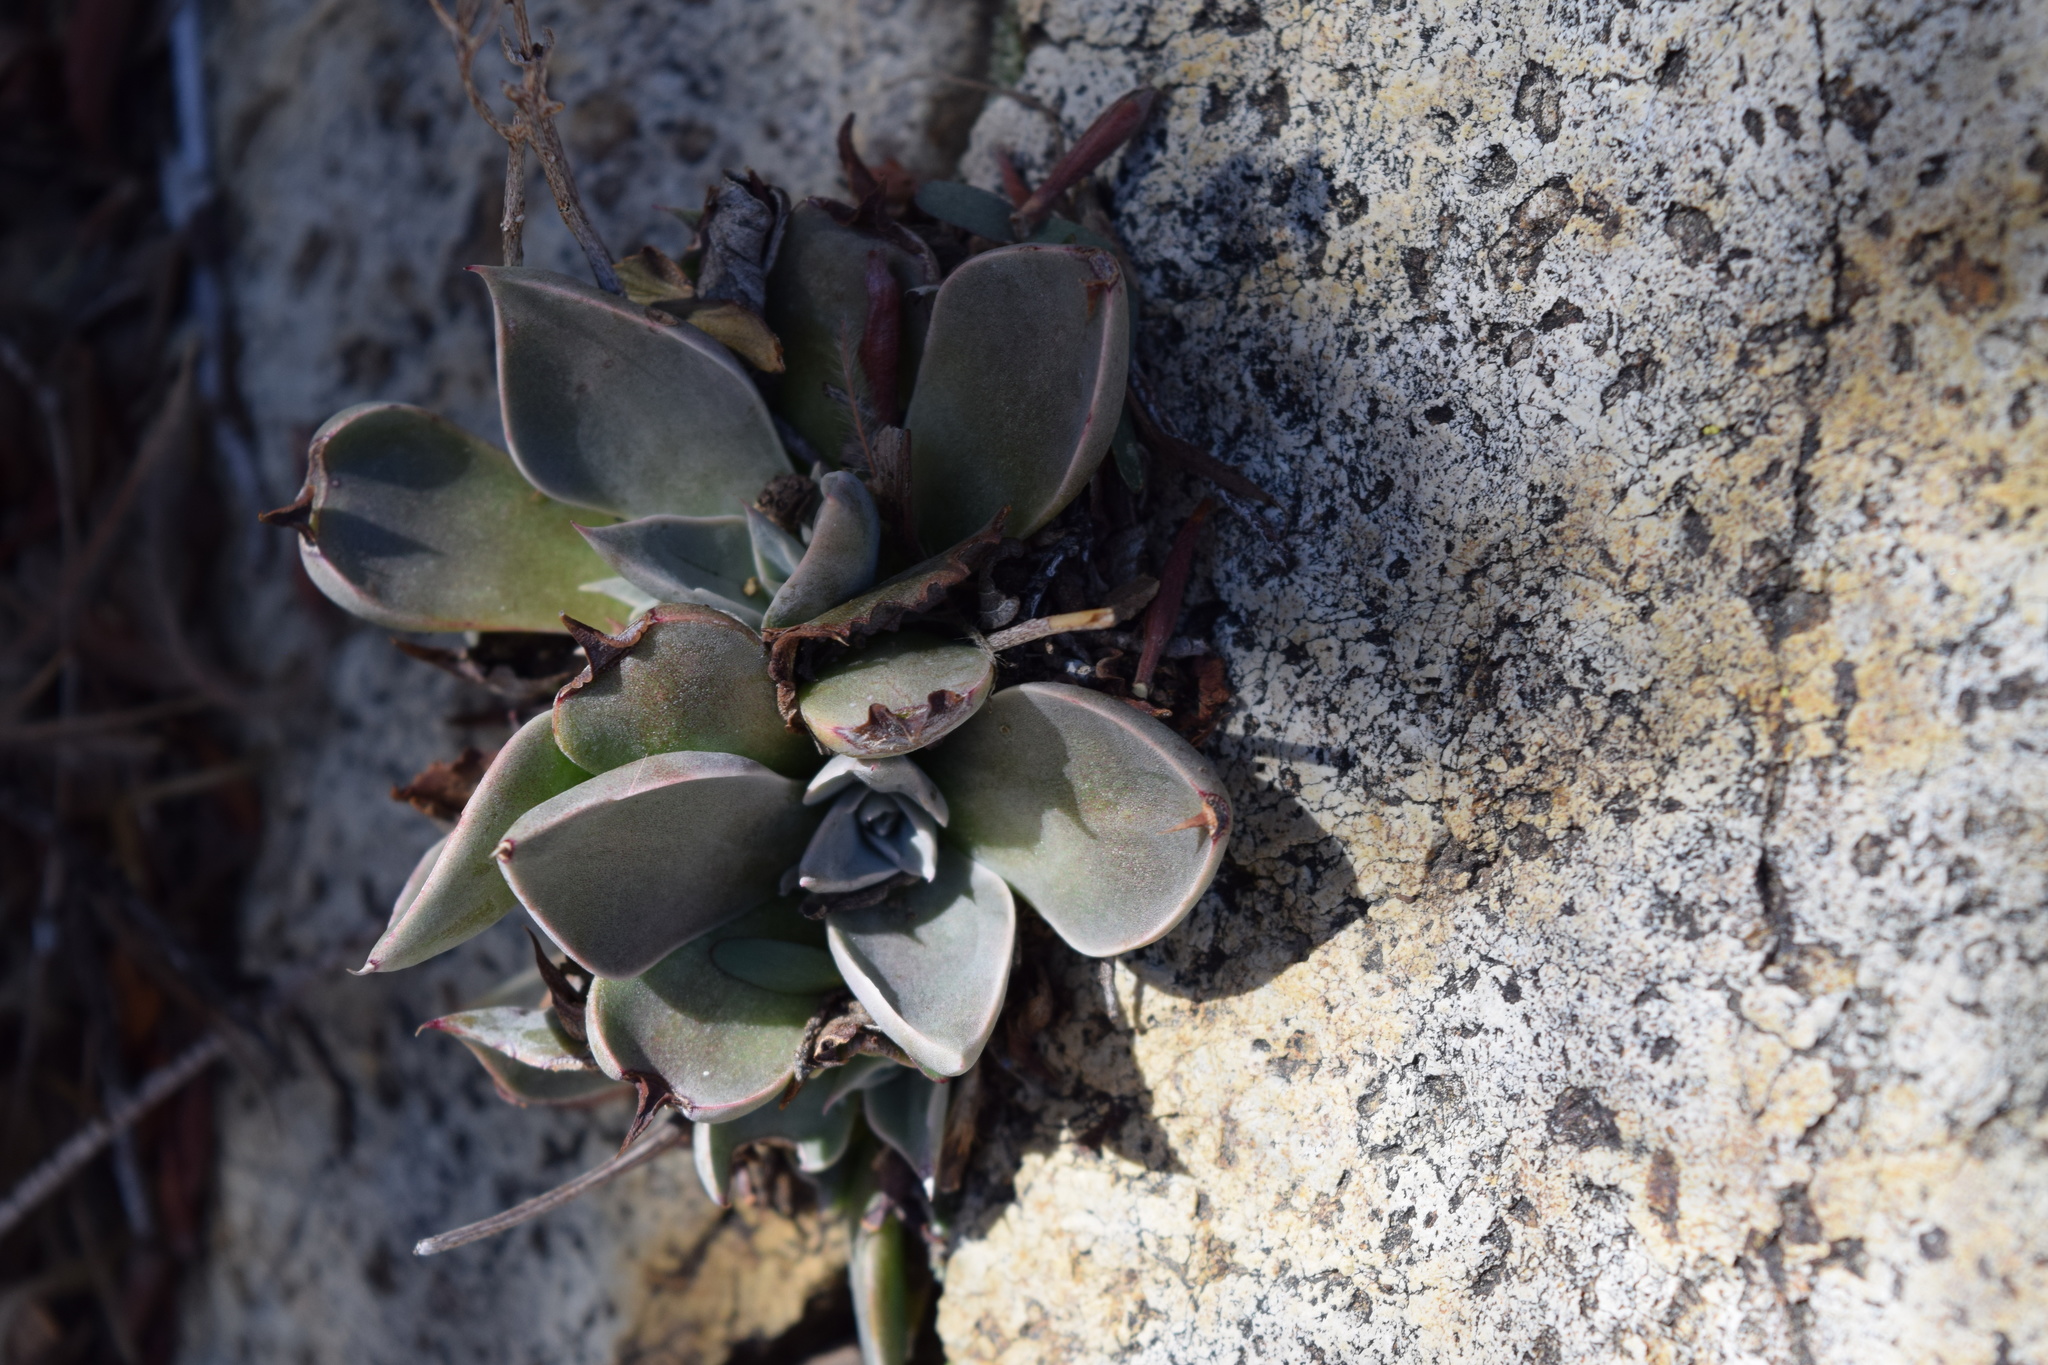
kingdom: Plantae
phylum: Tracheophyta
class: Magnoliopsida
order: Saxifragales
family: Crassulaceae
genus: Dudleya
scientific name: Dudleya cymosa
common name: Canyon dudleya
